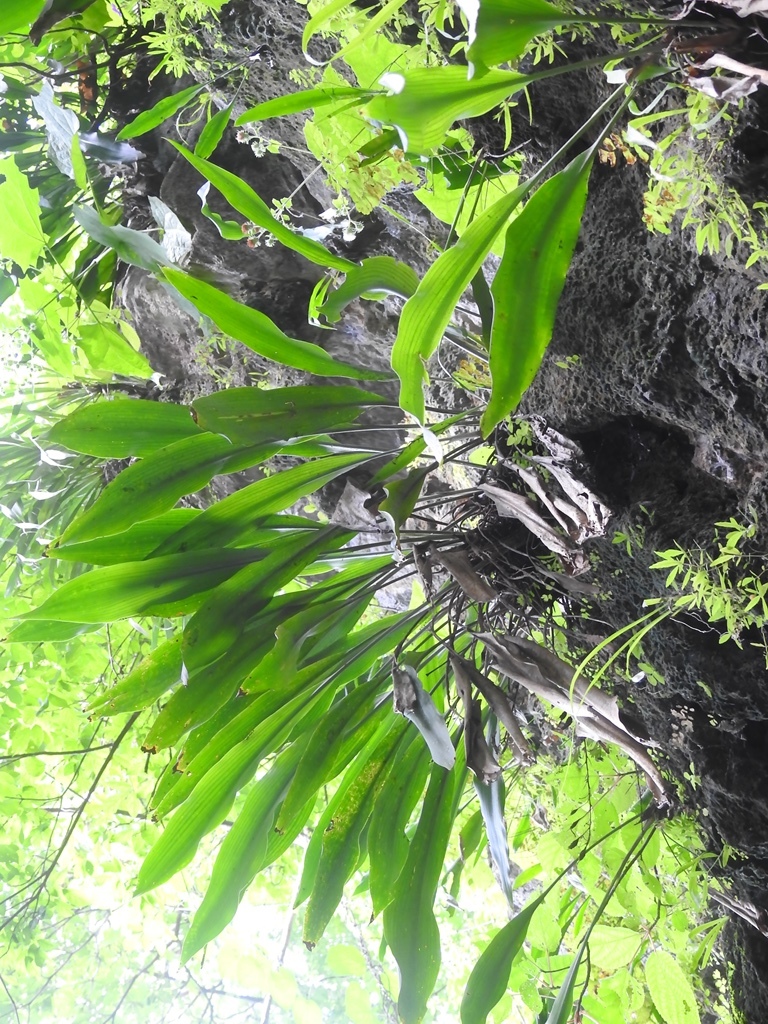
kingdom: Plantae
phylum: Tracheophyta
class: Liliopsida
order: Poales
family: Bromeliaceae
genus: Pitcairnia
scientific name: Pitcairnia chiapensis
